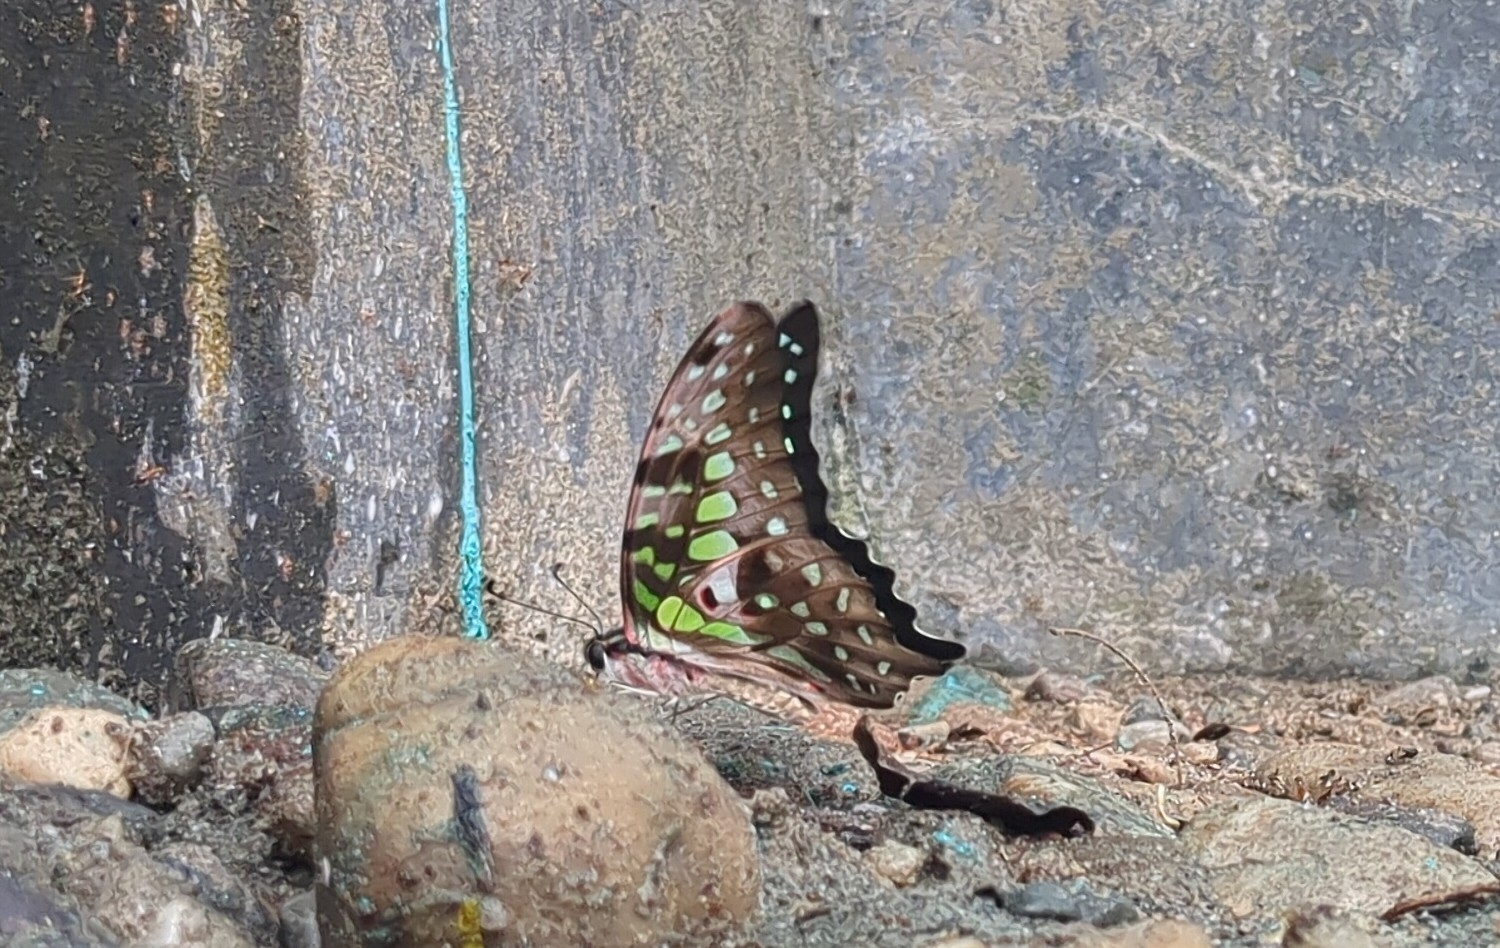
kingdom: Animalia
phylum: Arthropoda
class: Insecta
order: Lepidoptera
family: Papilionidae
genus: Graphium
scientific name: Graphium agamemnon
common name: Tailed jay
